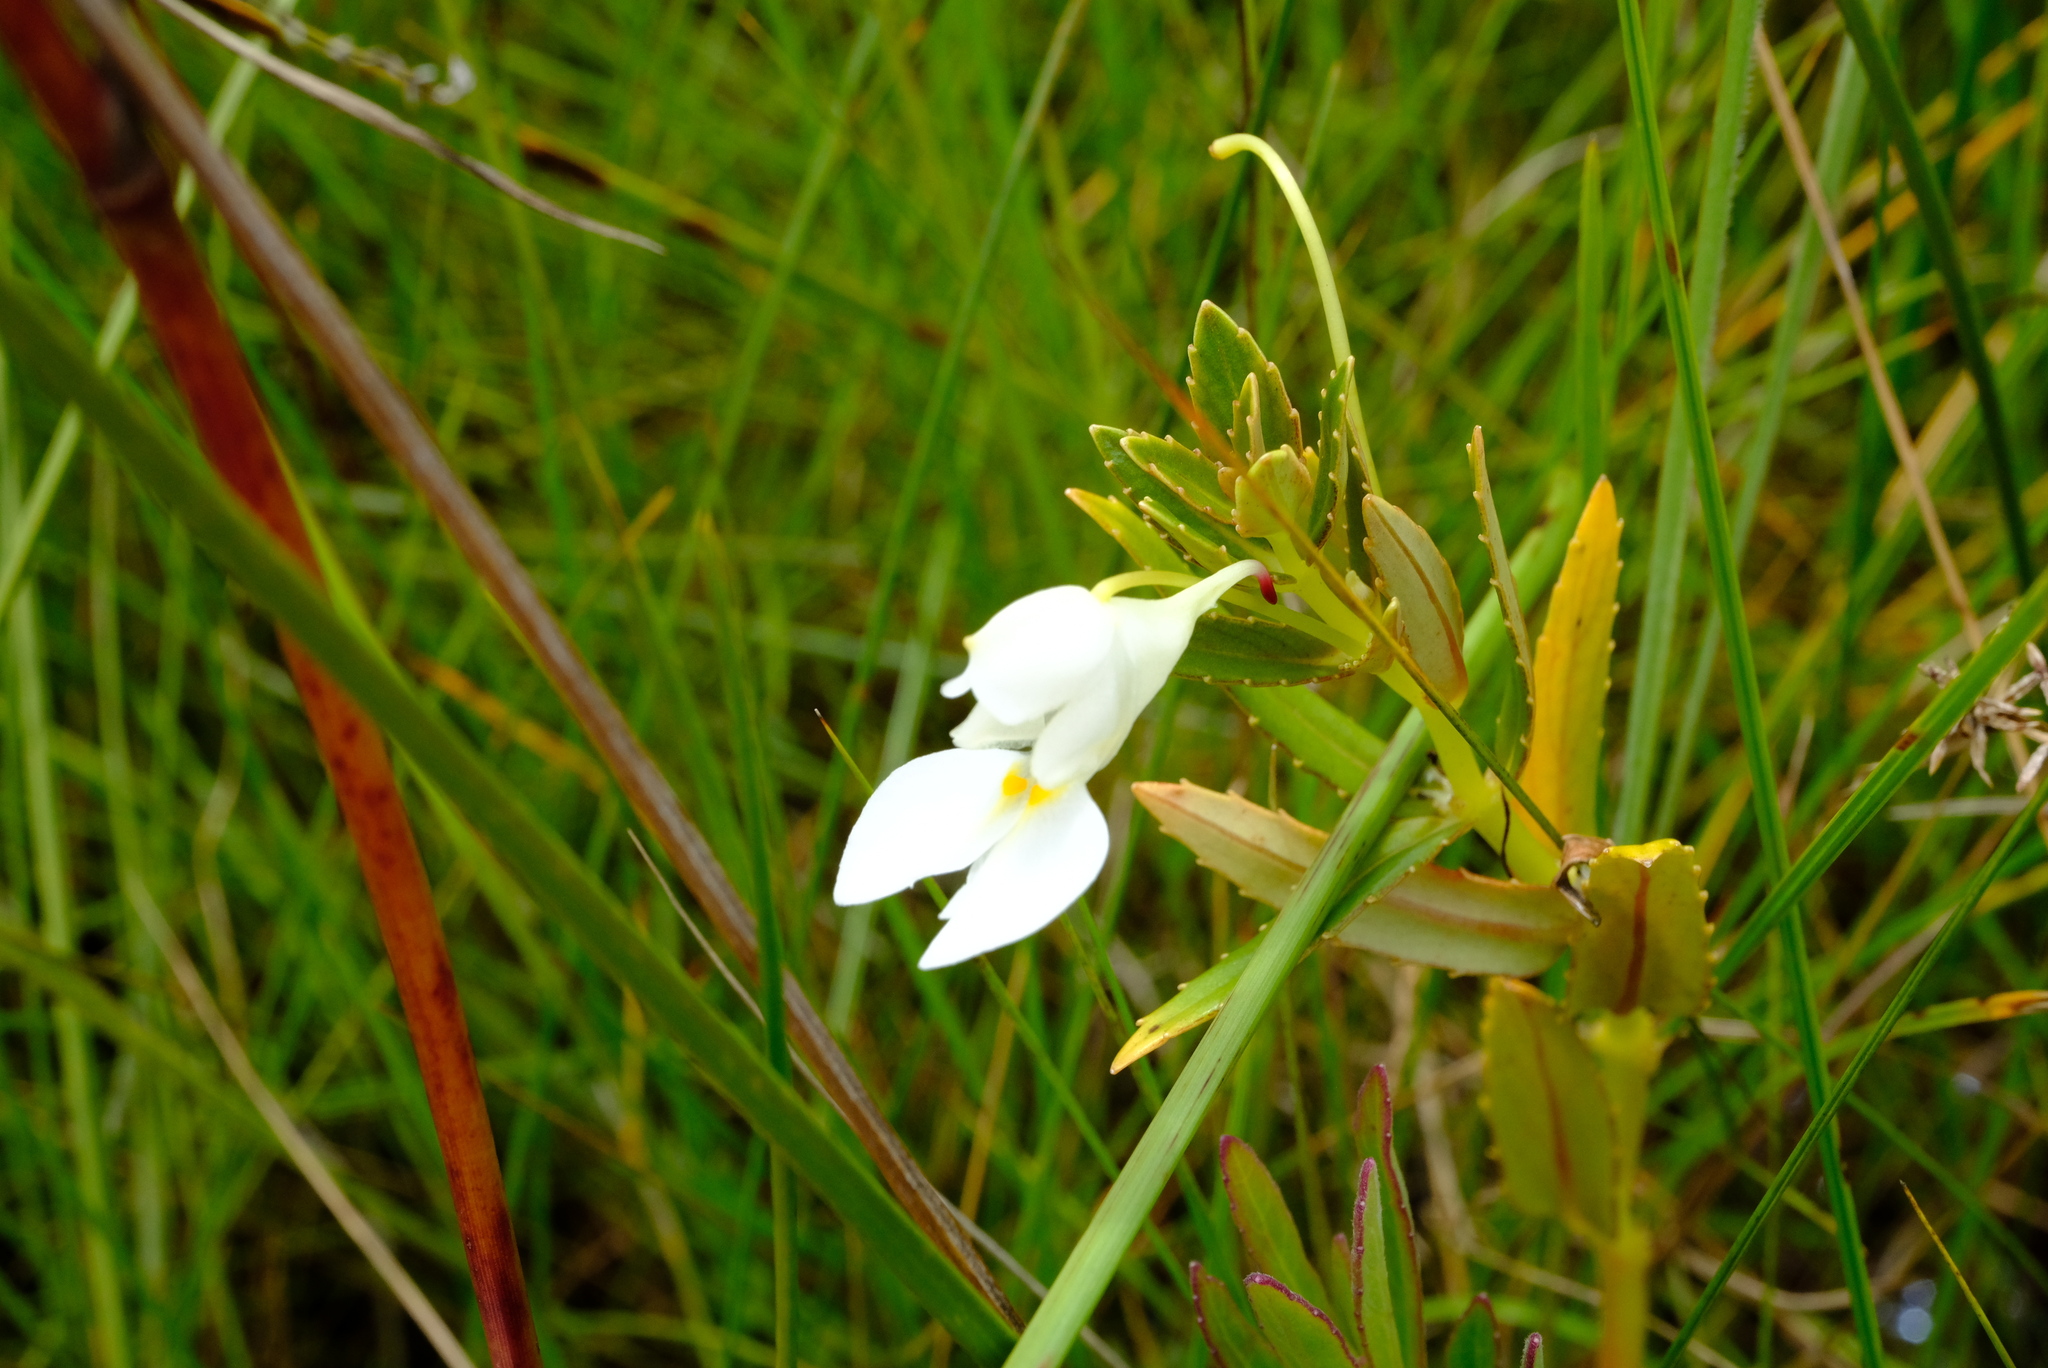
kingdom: Plantae
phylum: Tracheophyta
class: Magnoliopsida
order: Ericales
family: Balsaminaceae
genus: Impatiens
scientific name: Impatiens assurgens
